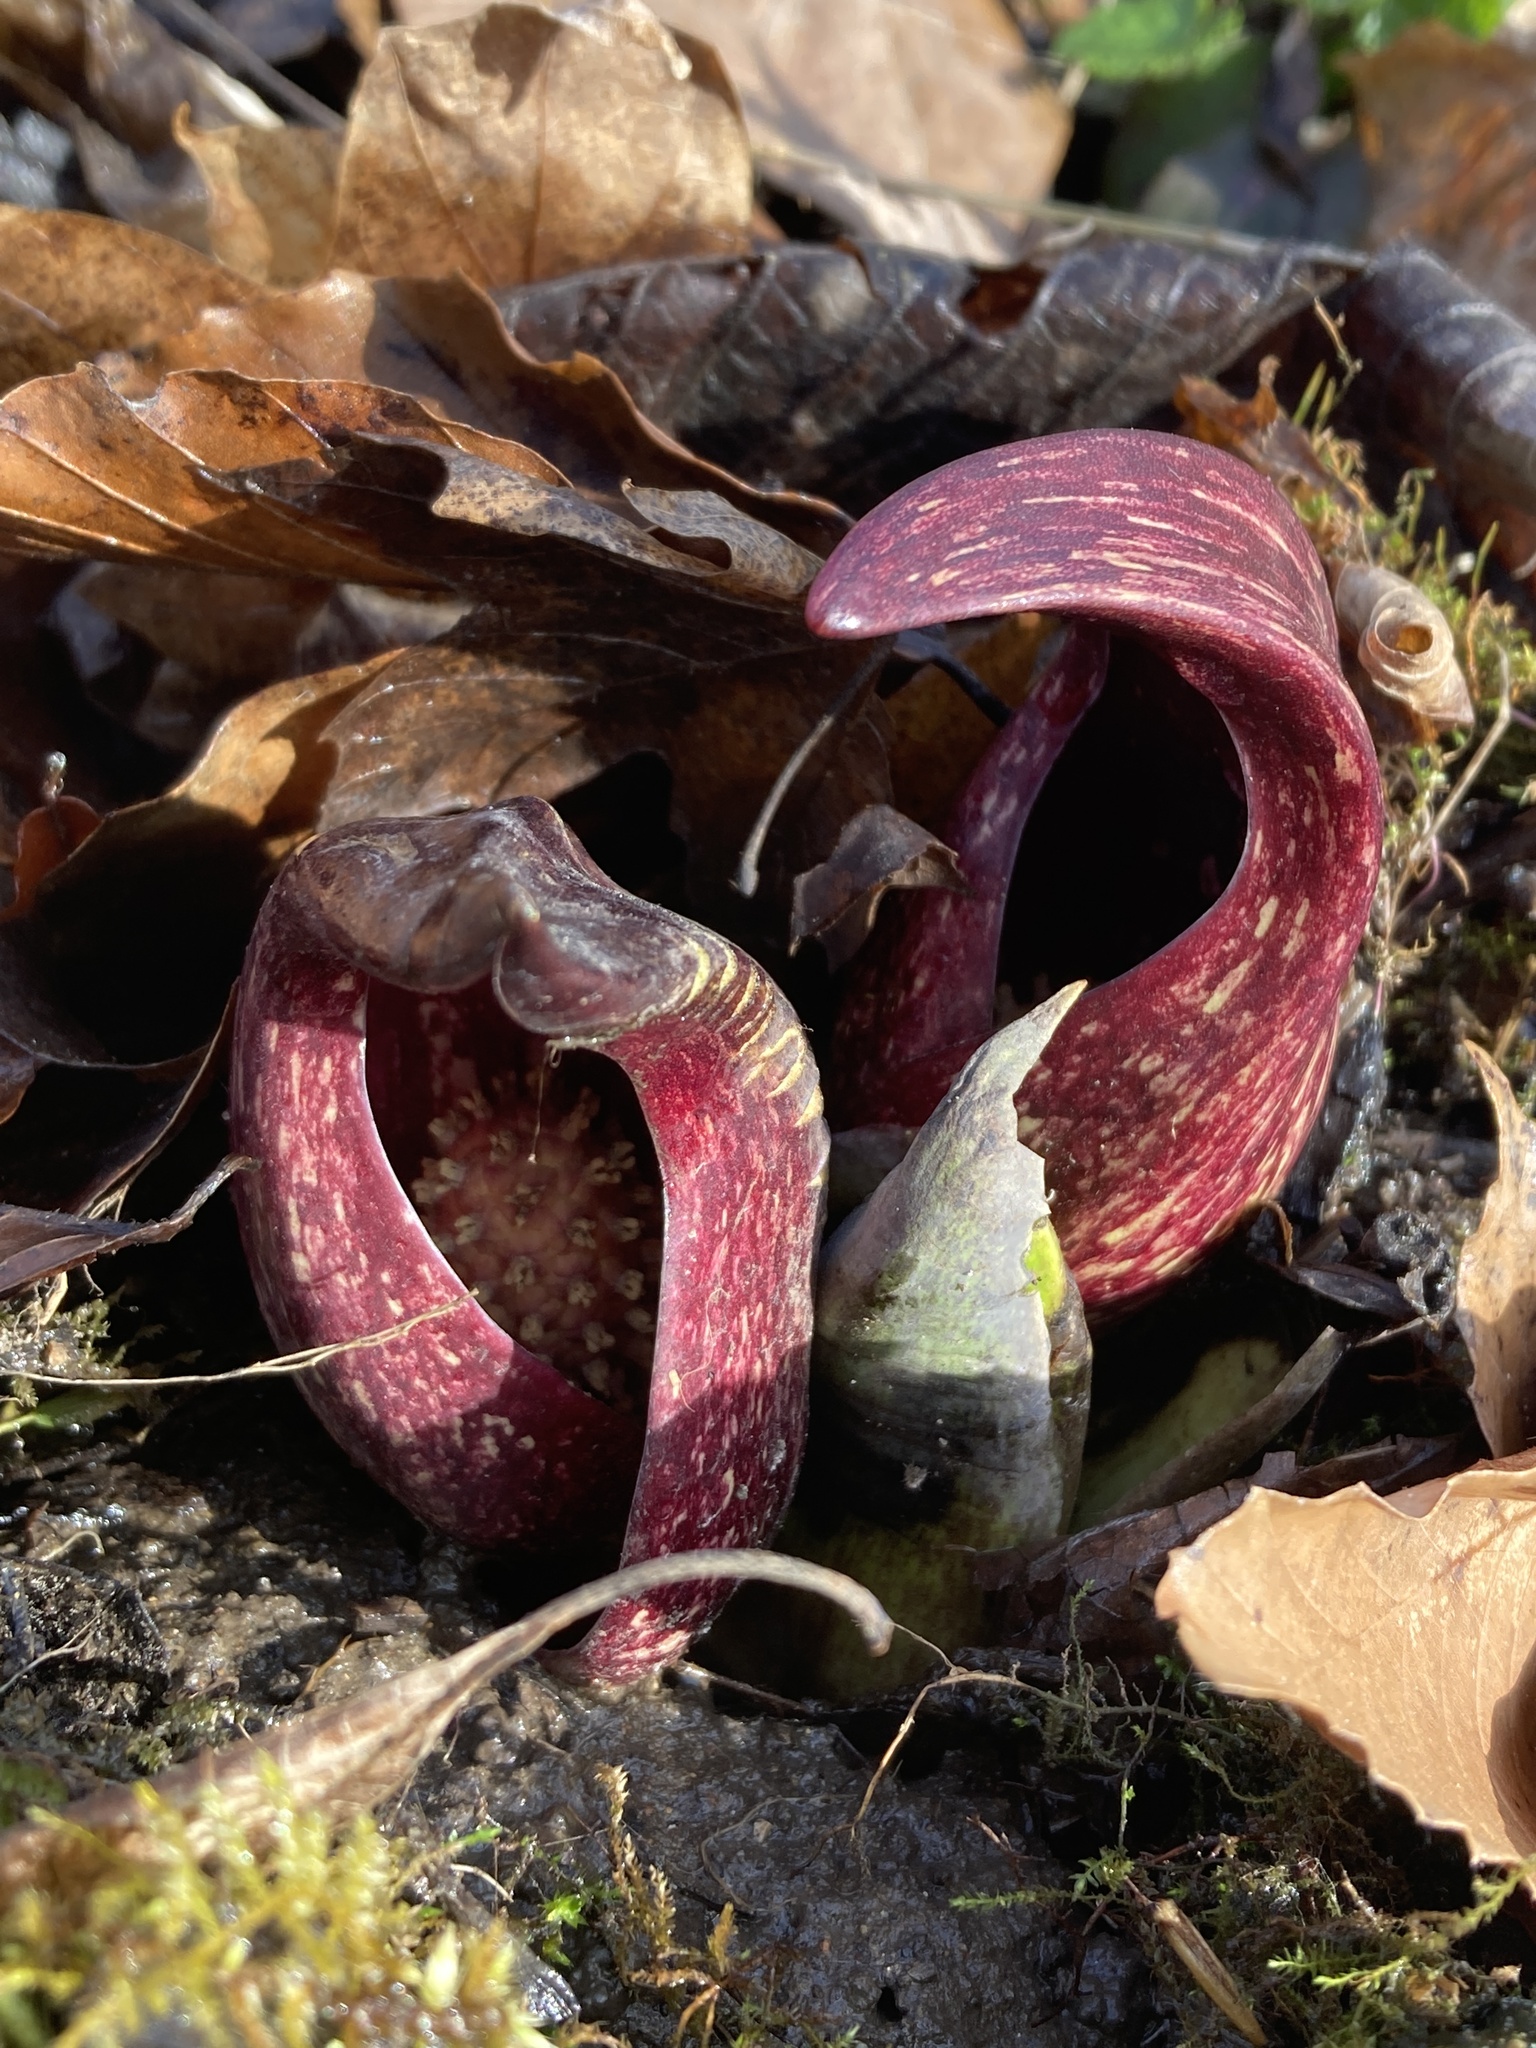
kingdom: Plantae
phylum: Tracheophyta
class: Liliopsida
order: Alismatales
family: Araceae
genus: Symplocarpus
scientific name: Symplocarpus foetidus
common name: Eastern skunk cabbage
